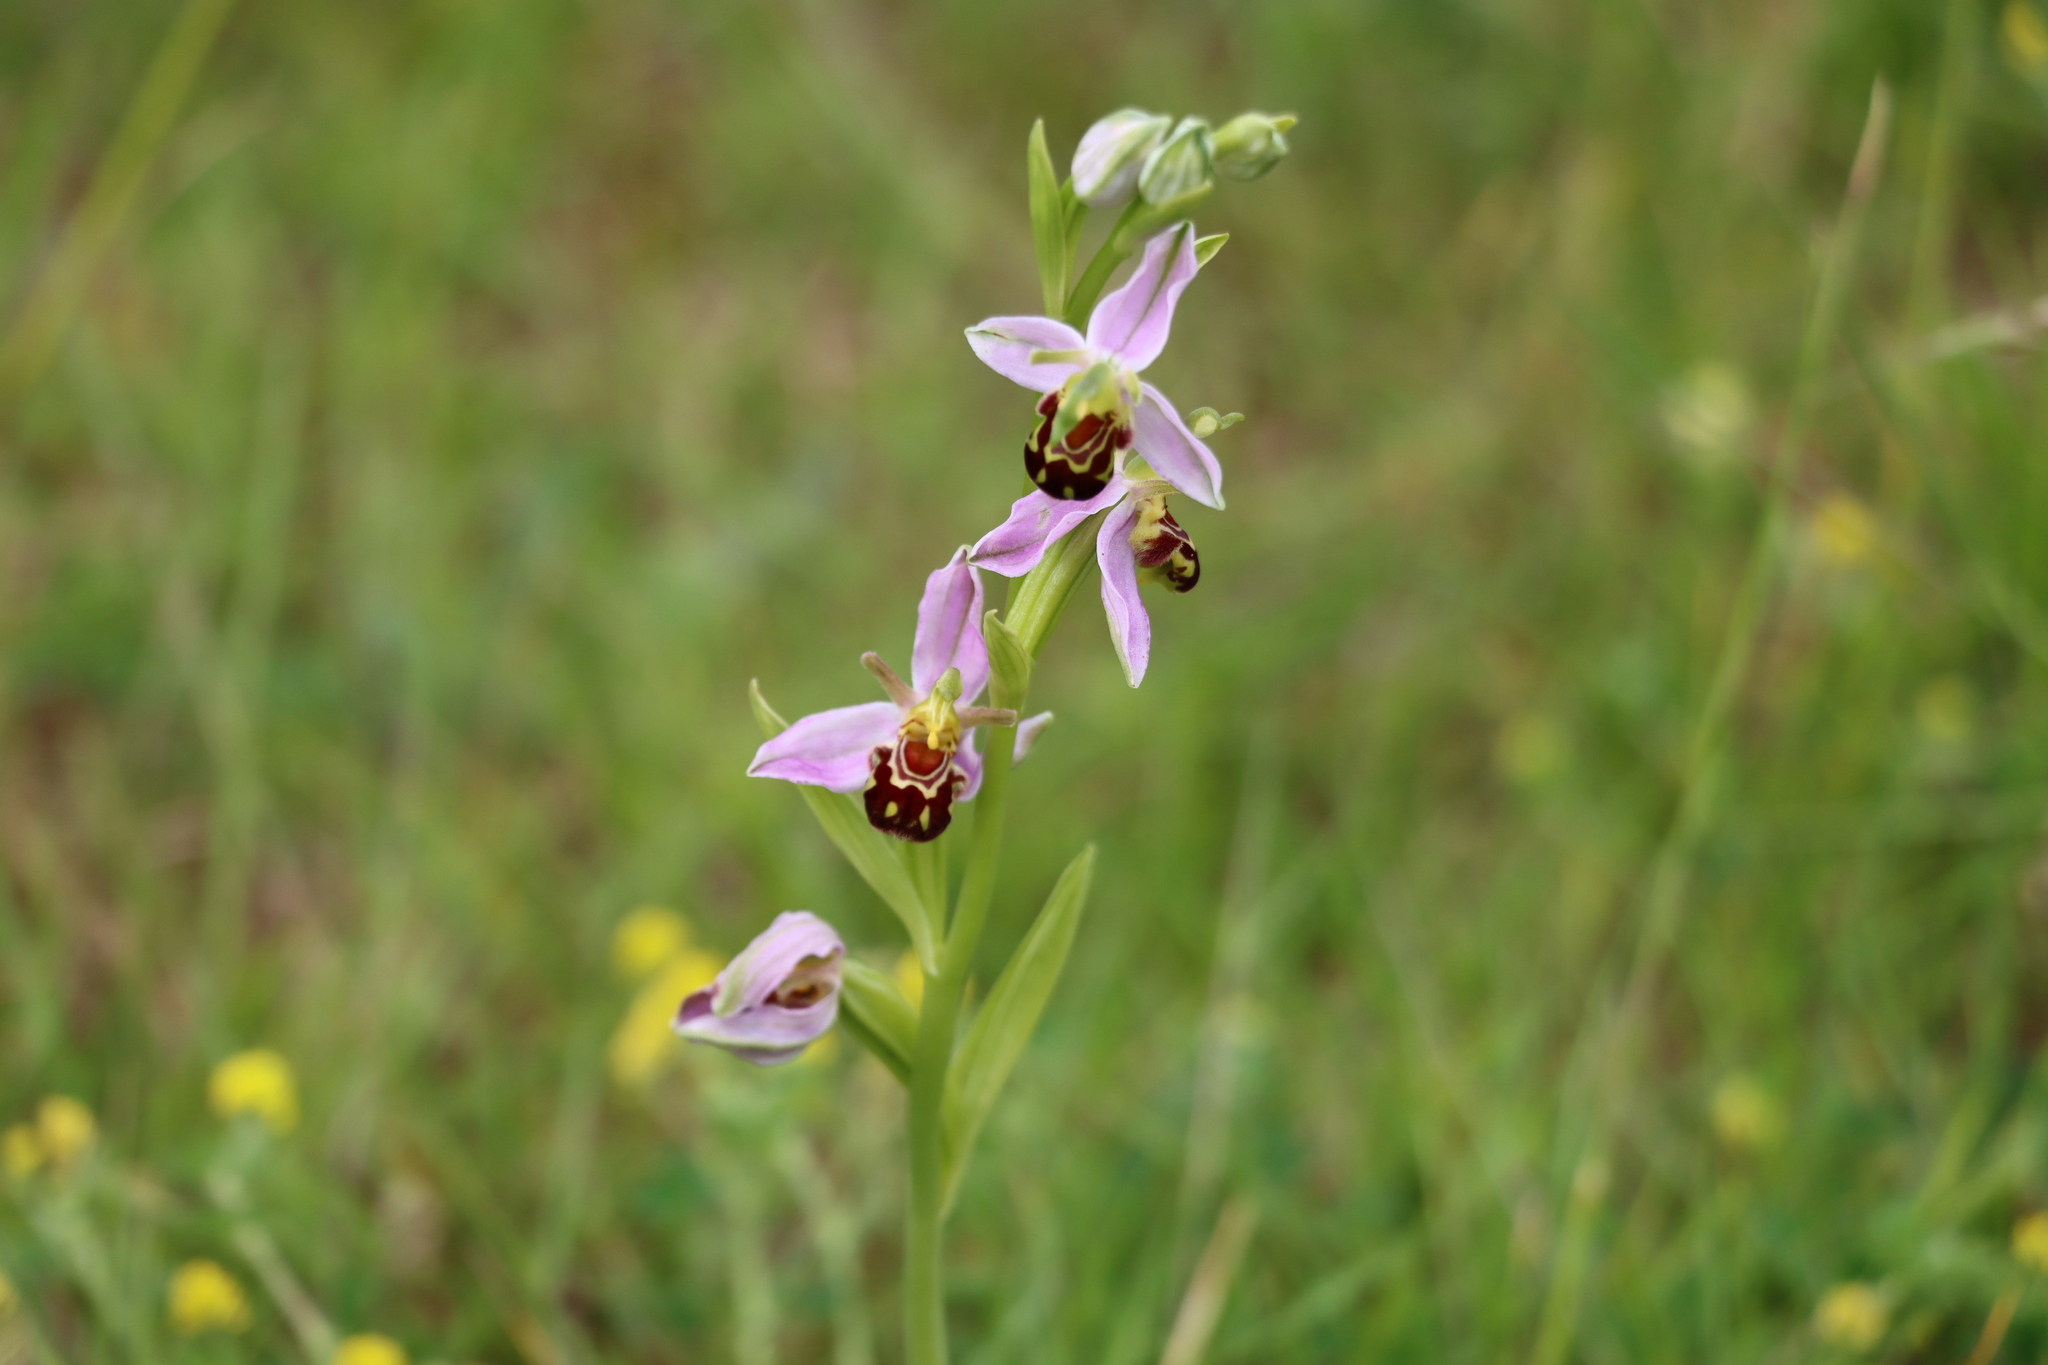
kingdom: Plantae
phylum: Tracheophyta
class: Liliopsida
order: Asparagales
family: Orchidaceae
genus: Ophrys
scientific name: Ophrys apifera
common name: Bee orchid
